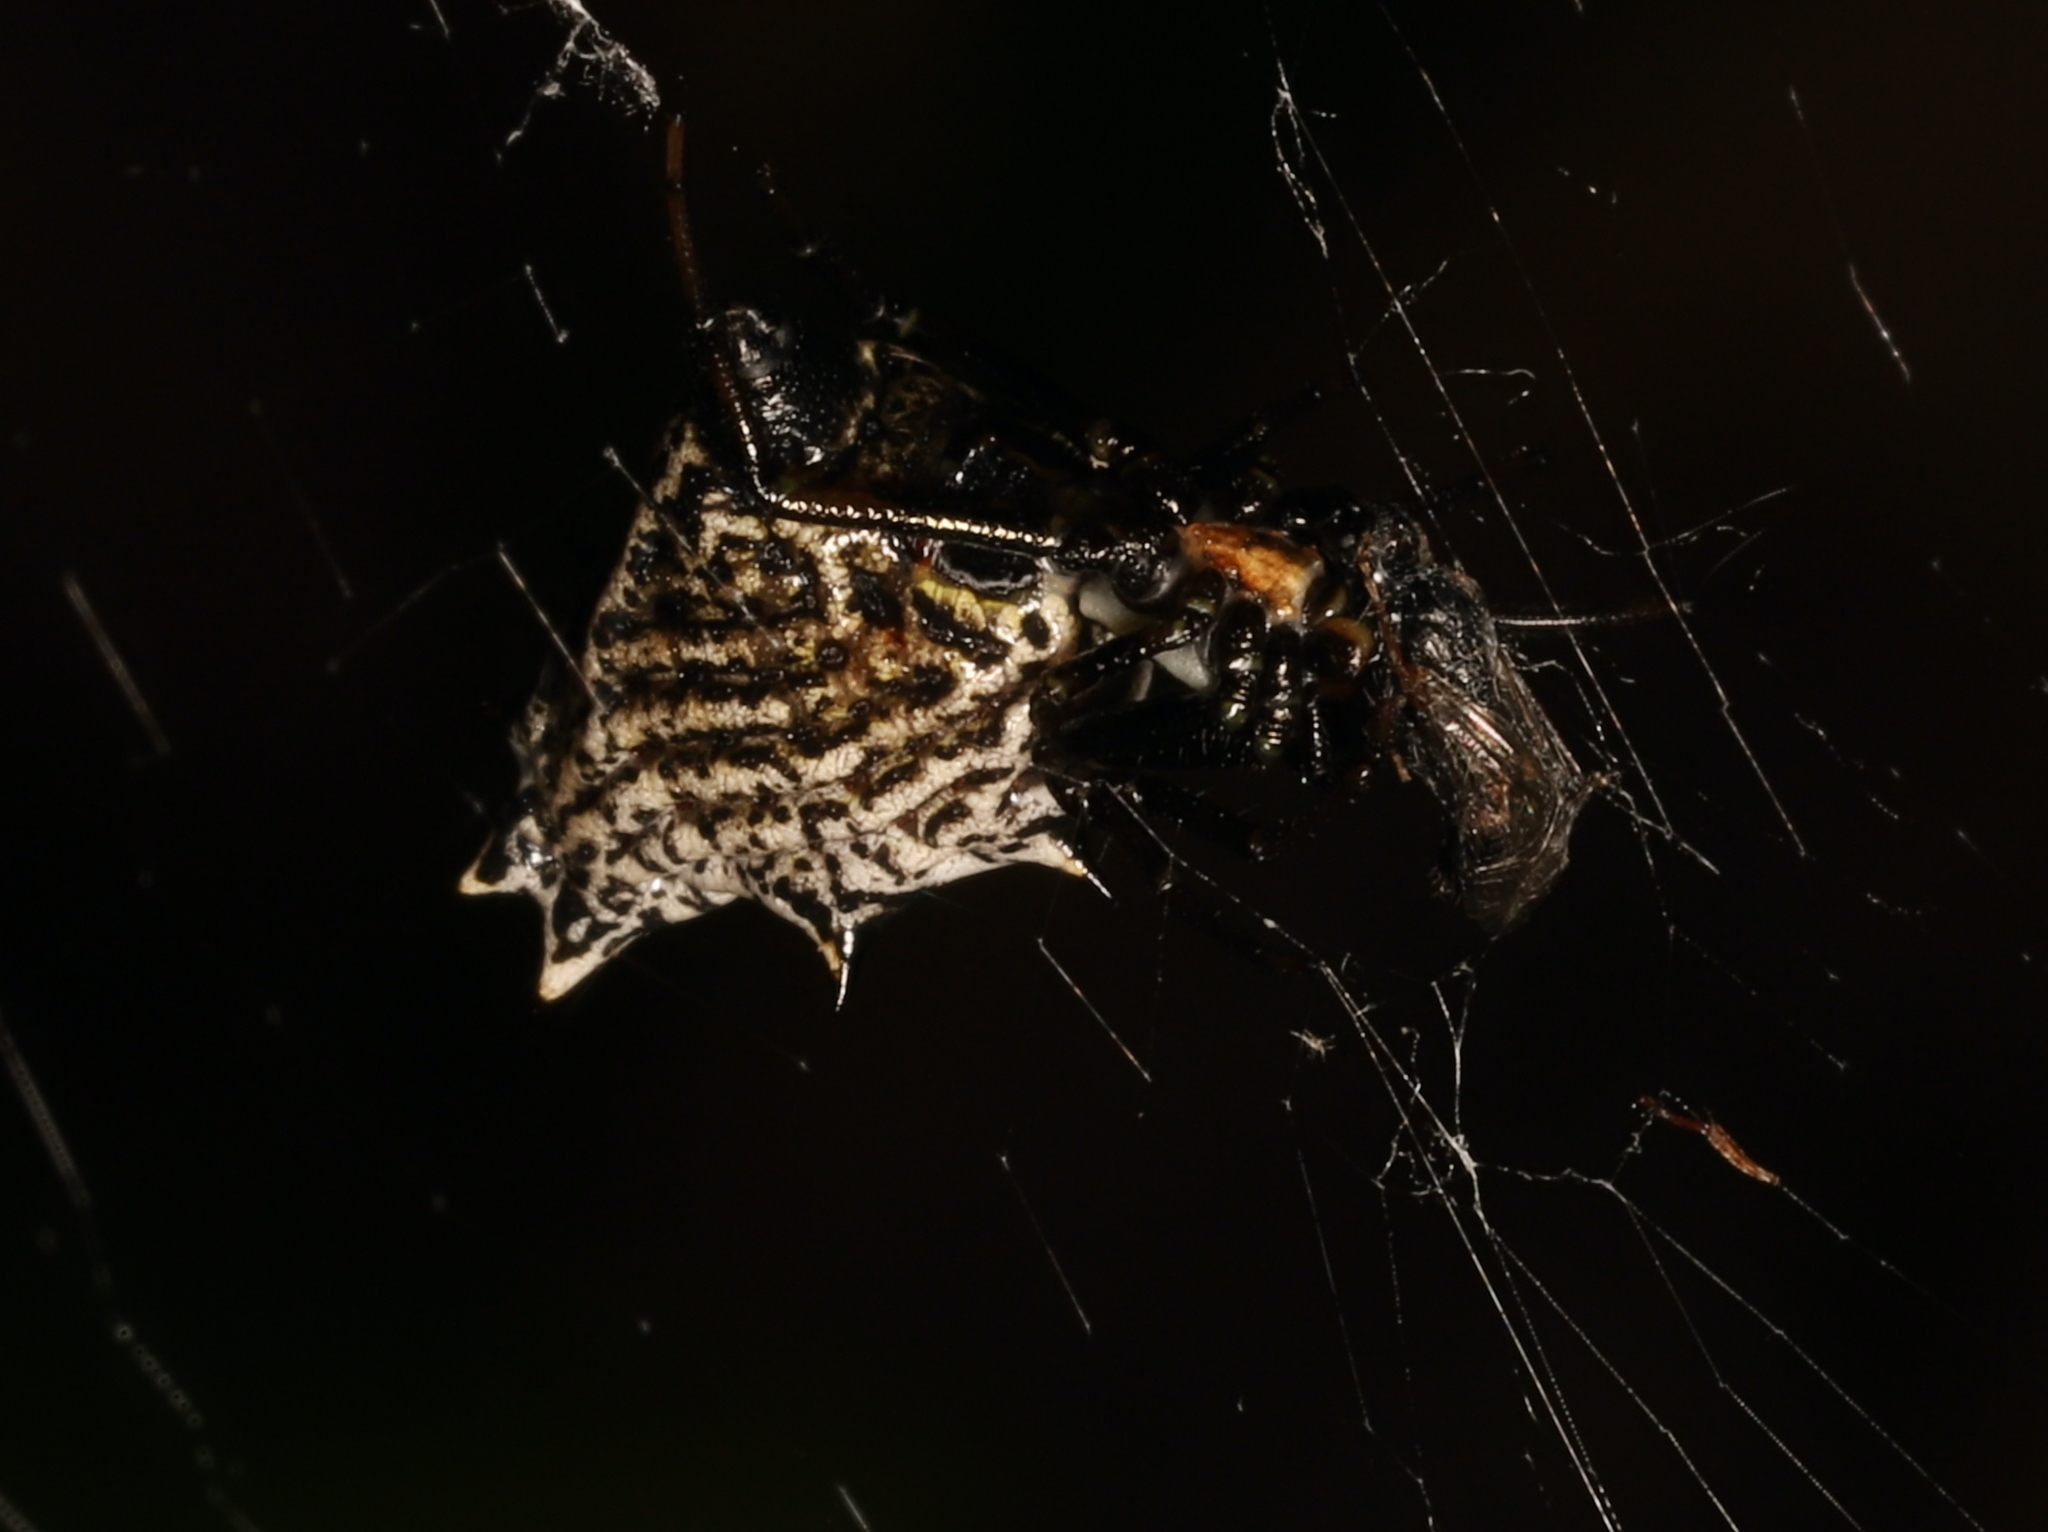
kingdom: Animalia
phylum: Arthropoda
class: Arachnida
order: Araneae
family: Araneidae
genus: Micrathena
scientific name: Micrathena gracilis
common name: Orb weavers
